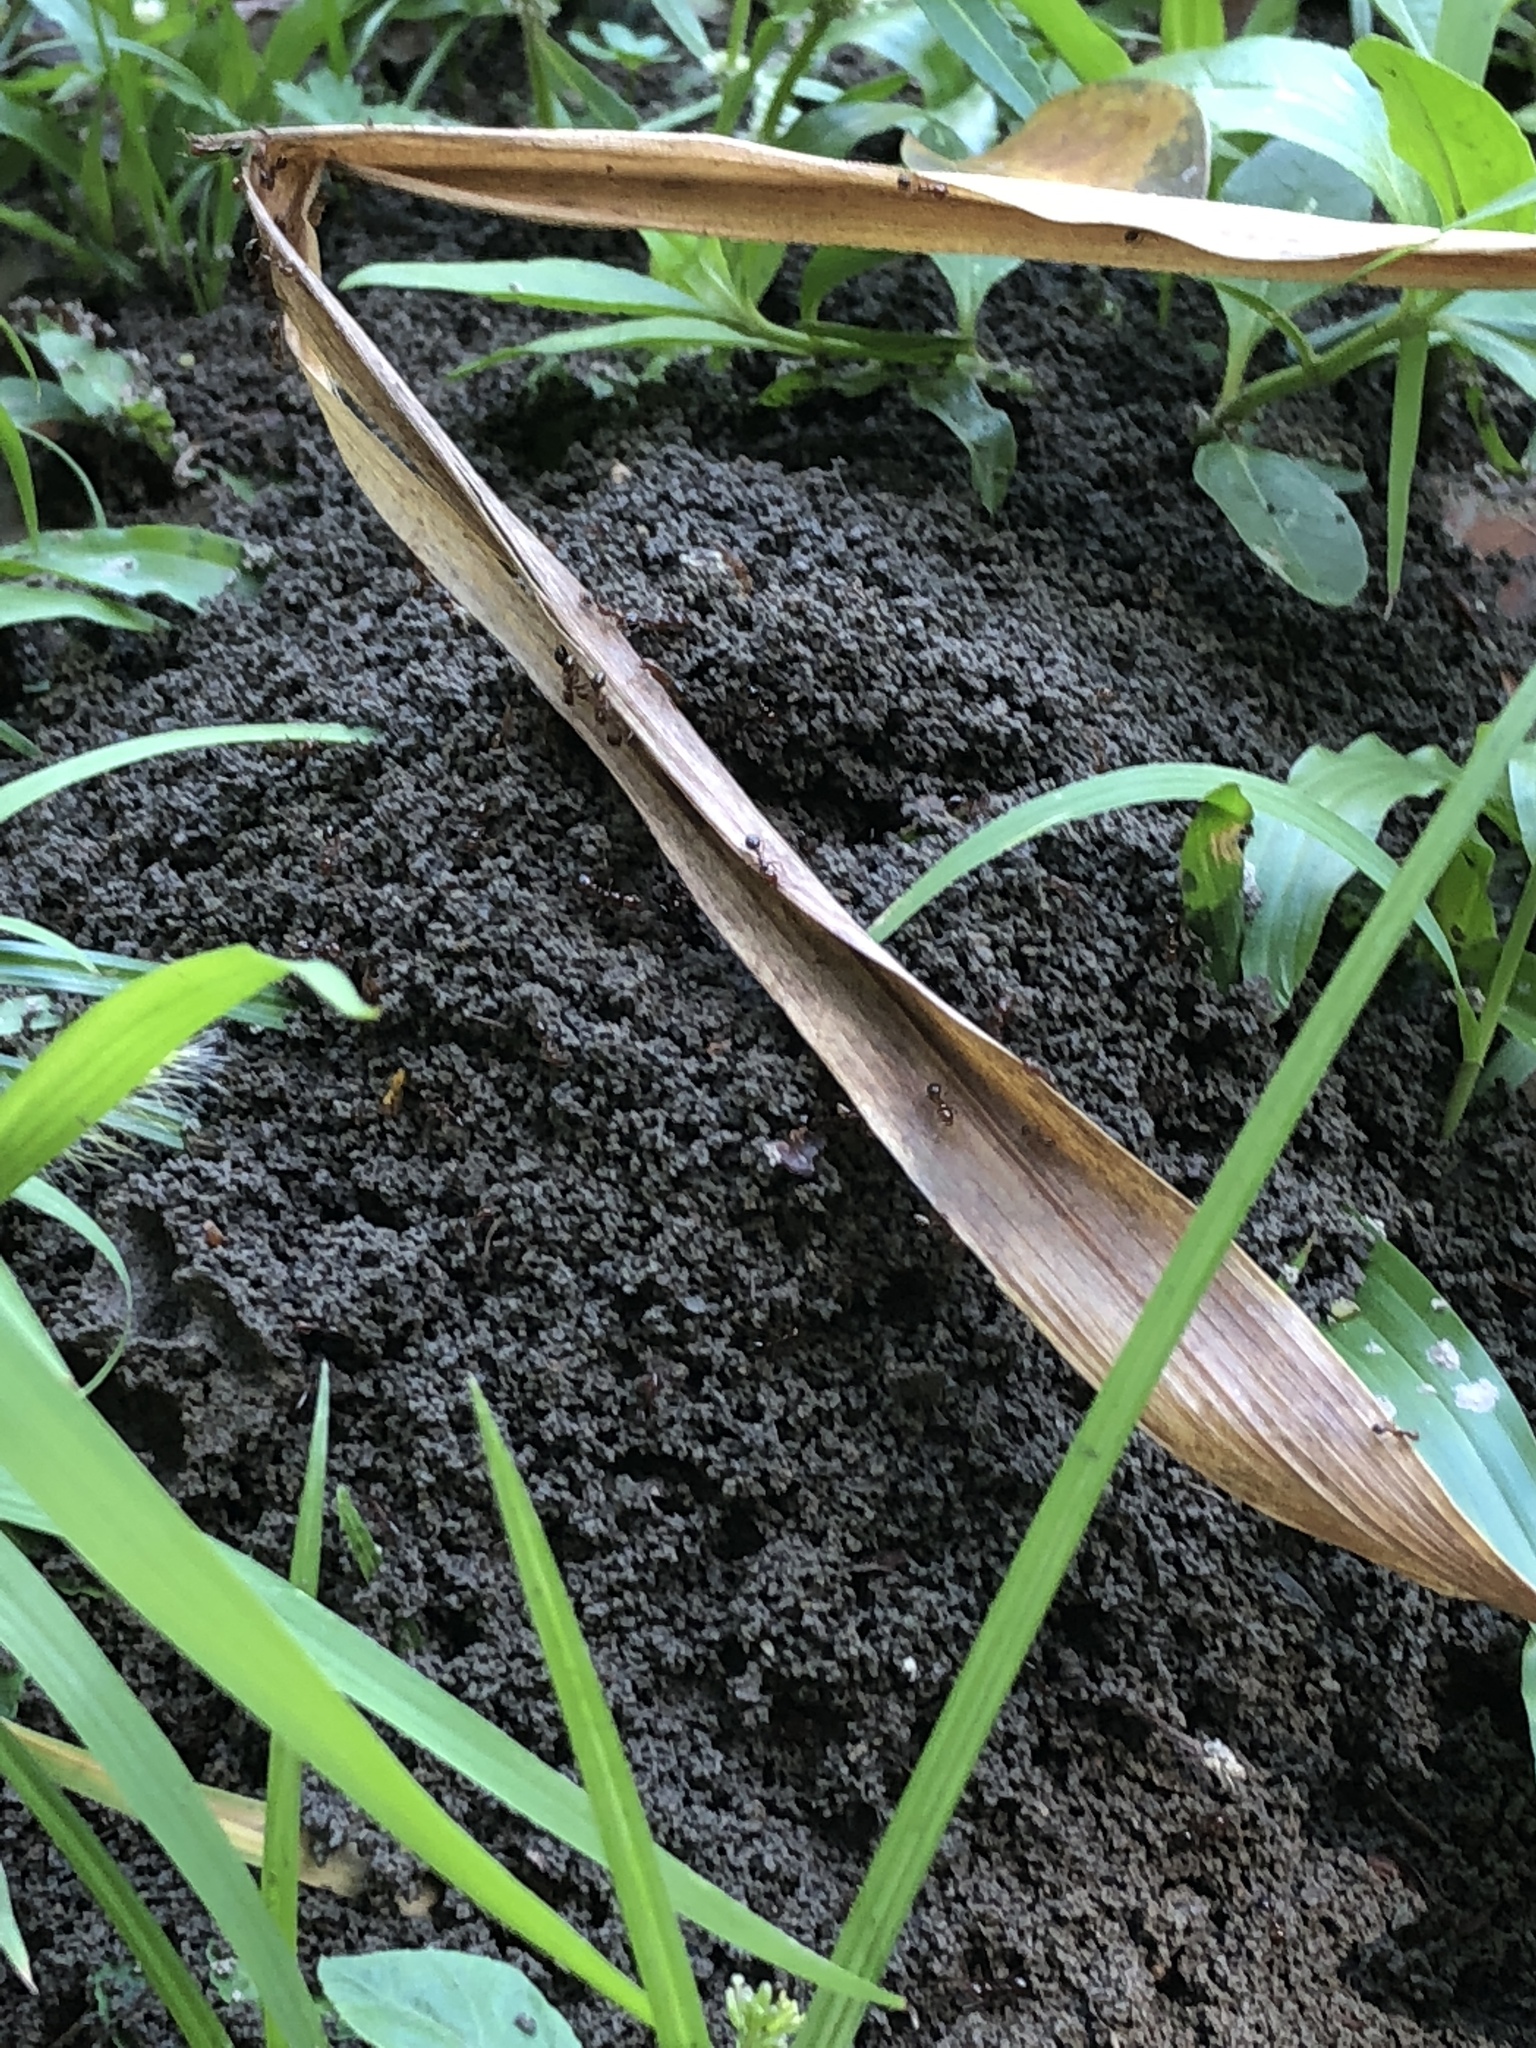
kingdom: Animalia
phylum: Arthropoda
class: Insecta
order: Hymenoptera
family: Formicidae
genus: Solenopsis
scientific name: Solenopsis invicta
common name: Red imported fire ant
